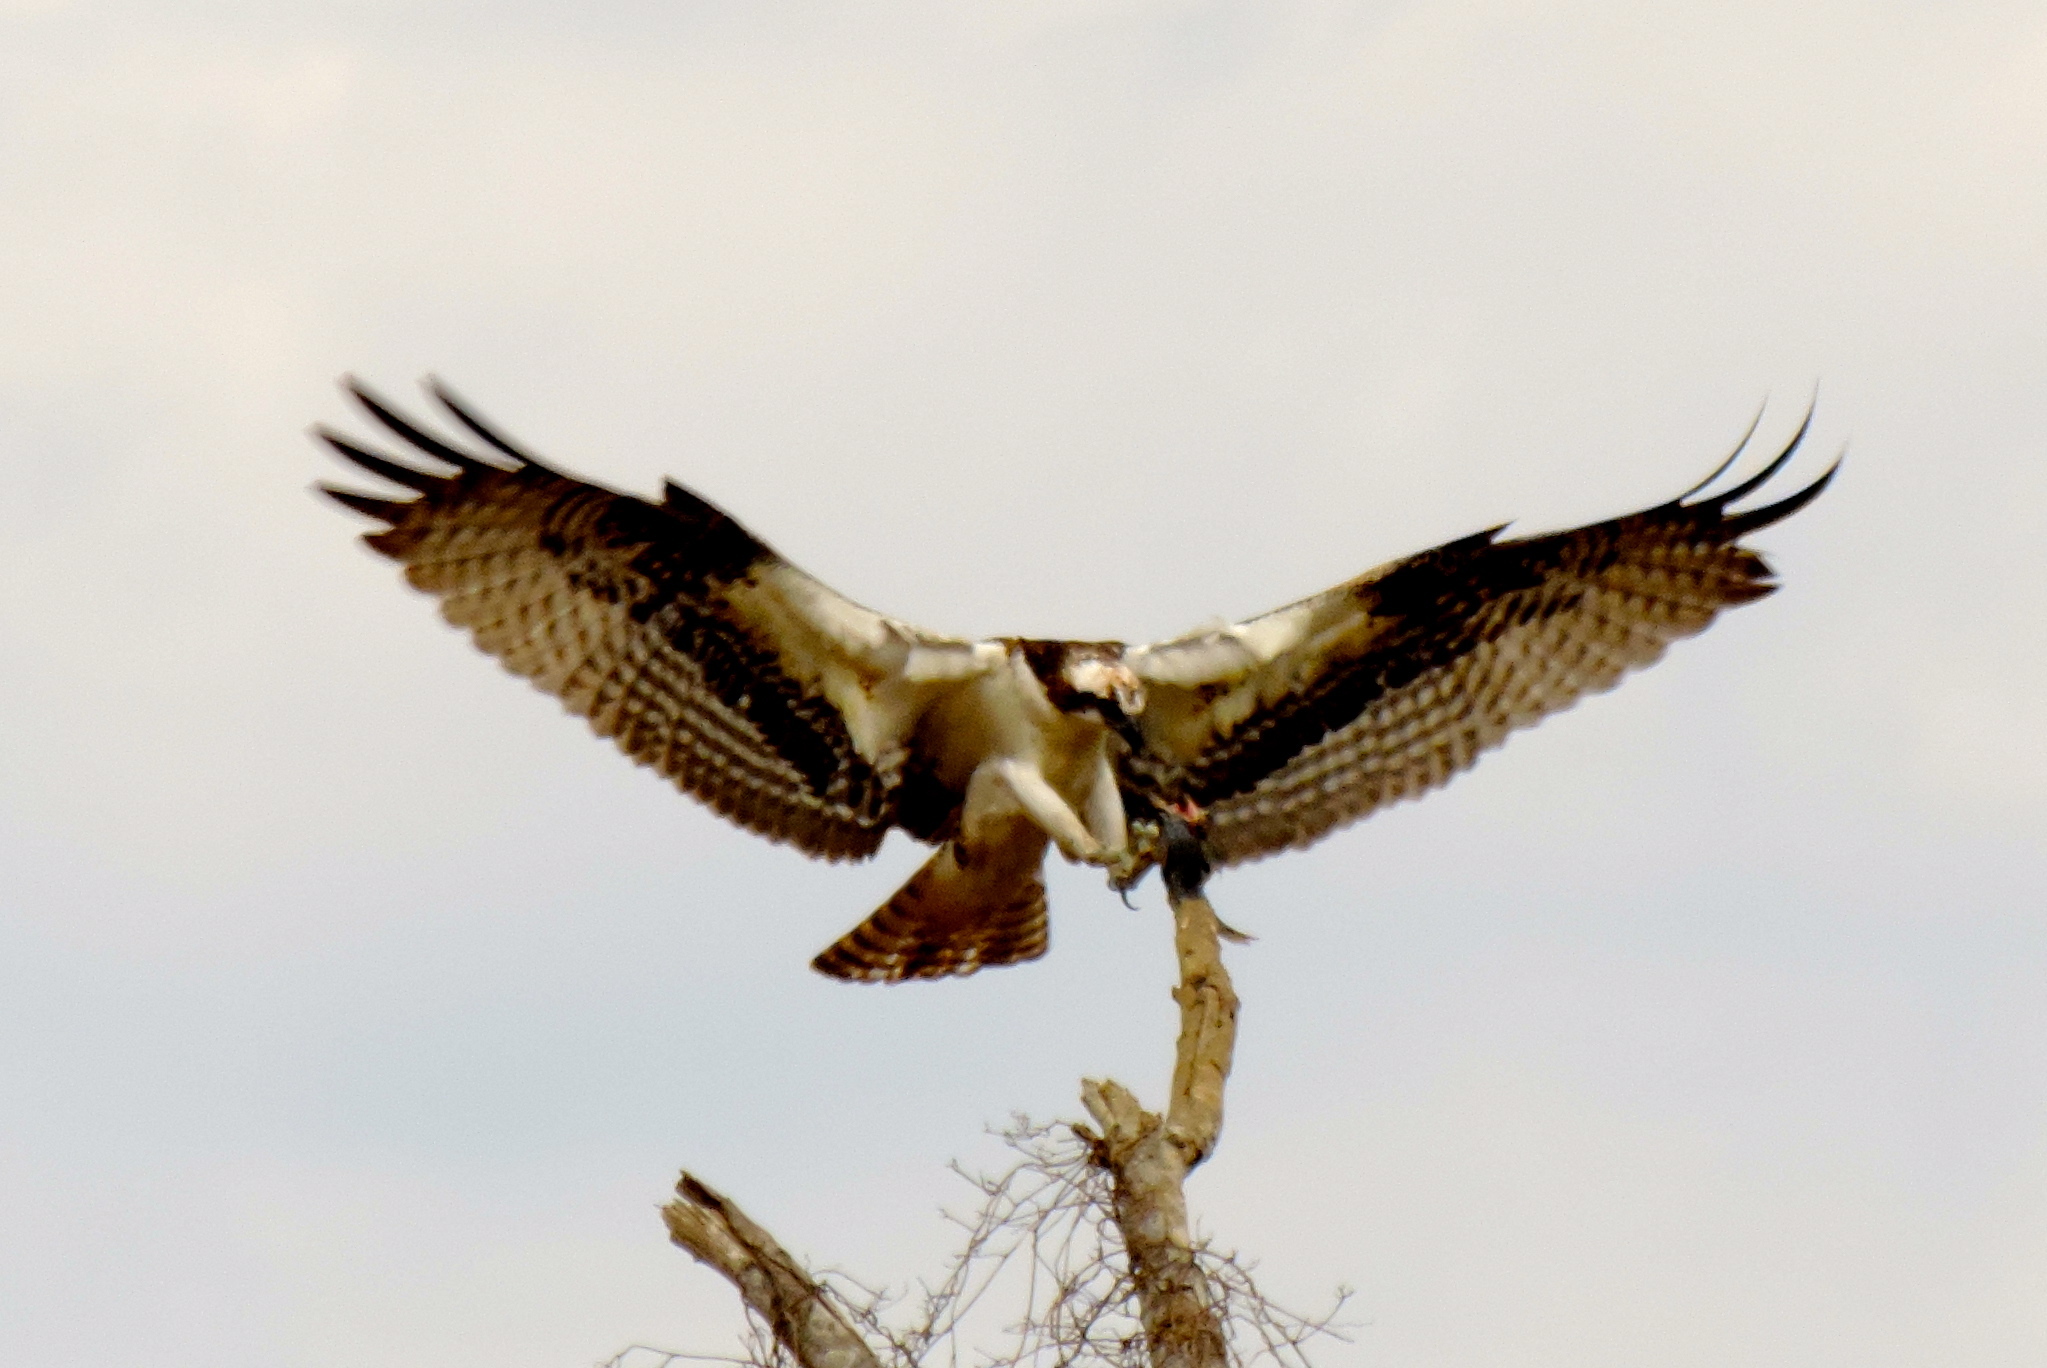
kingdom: Animalia
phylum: Chordata
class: Aves
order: Accipitriformes
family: Pandionidae
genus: Pandion
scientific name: Pandion haliaetus
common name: Osprey
